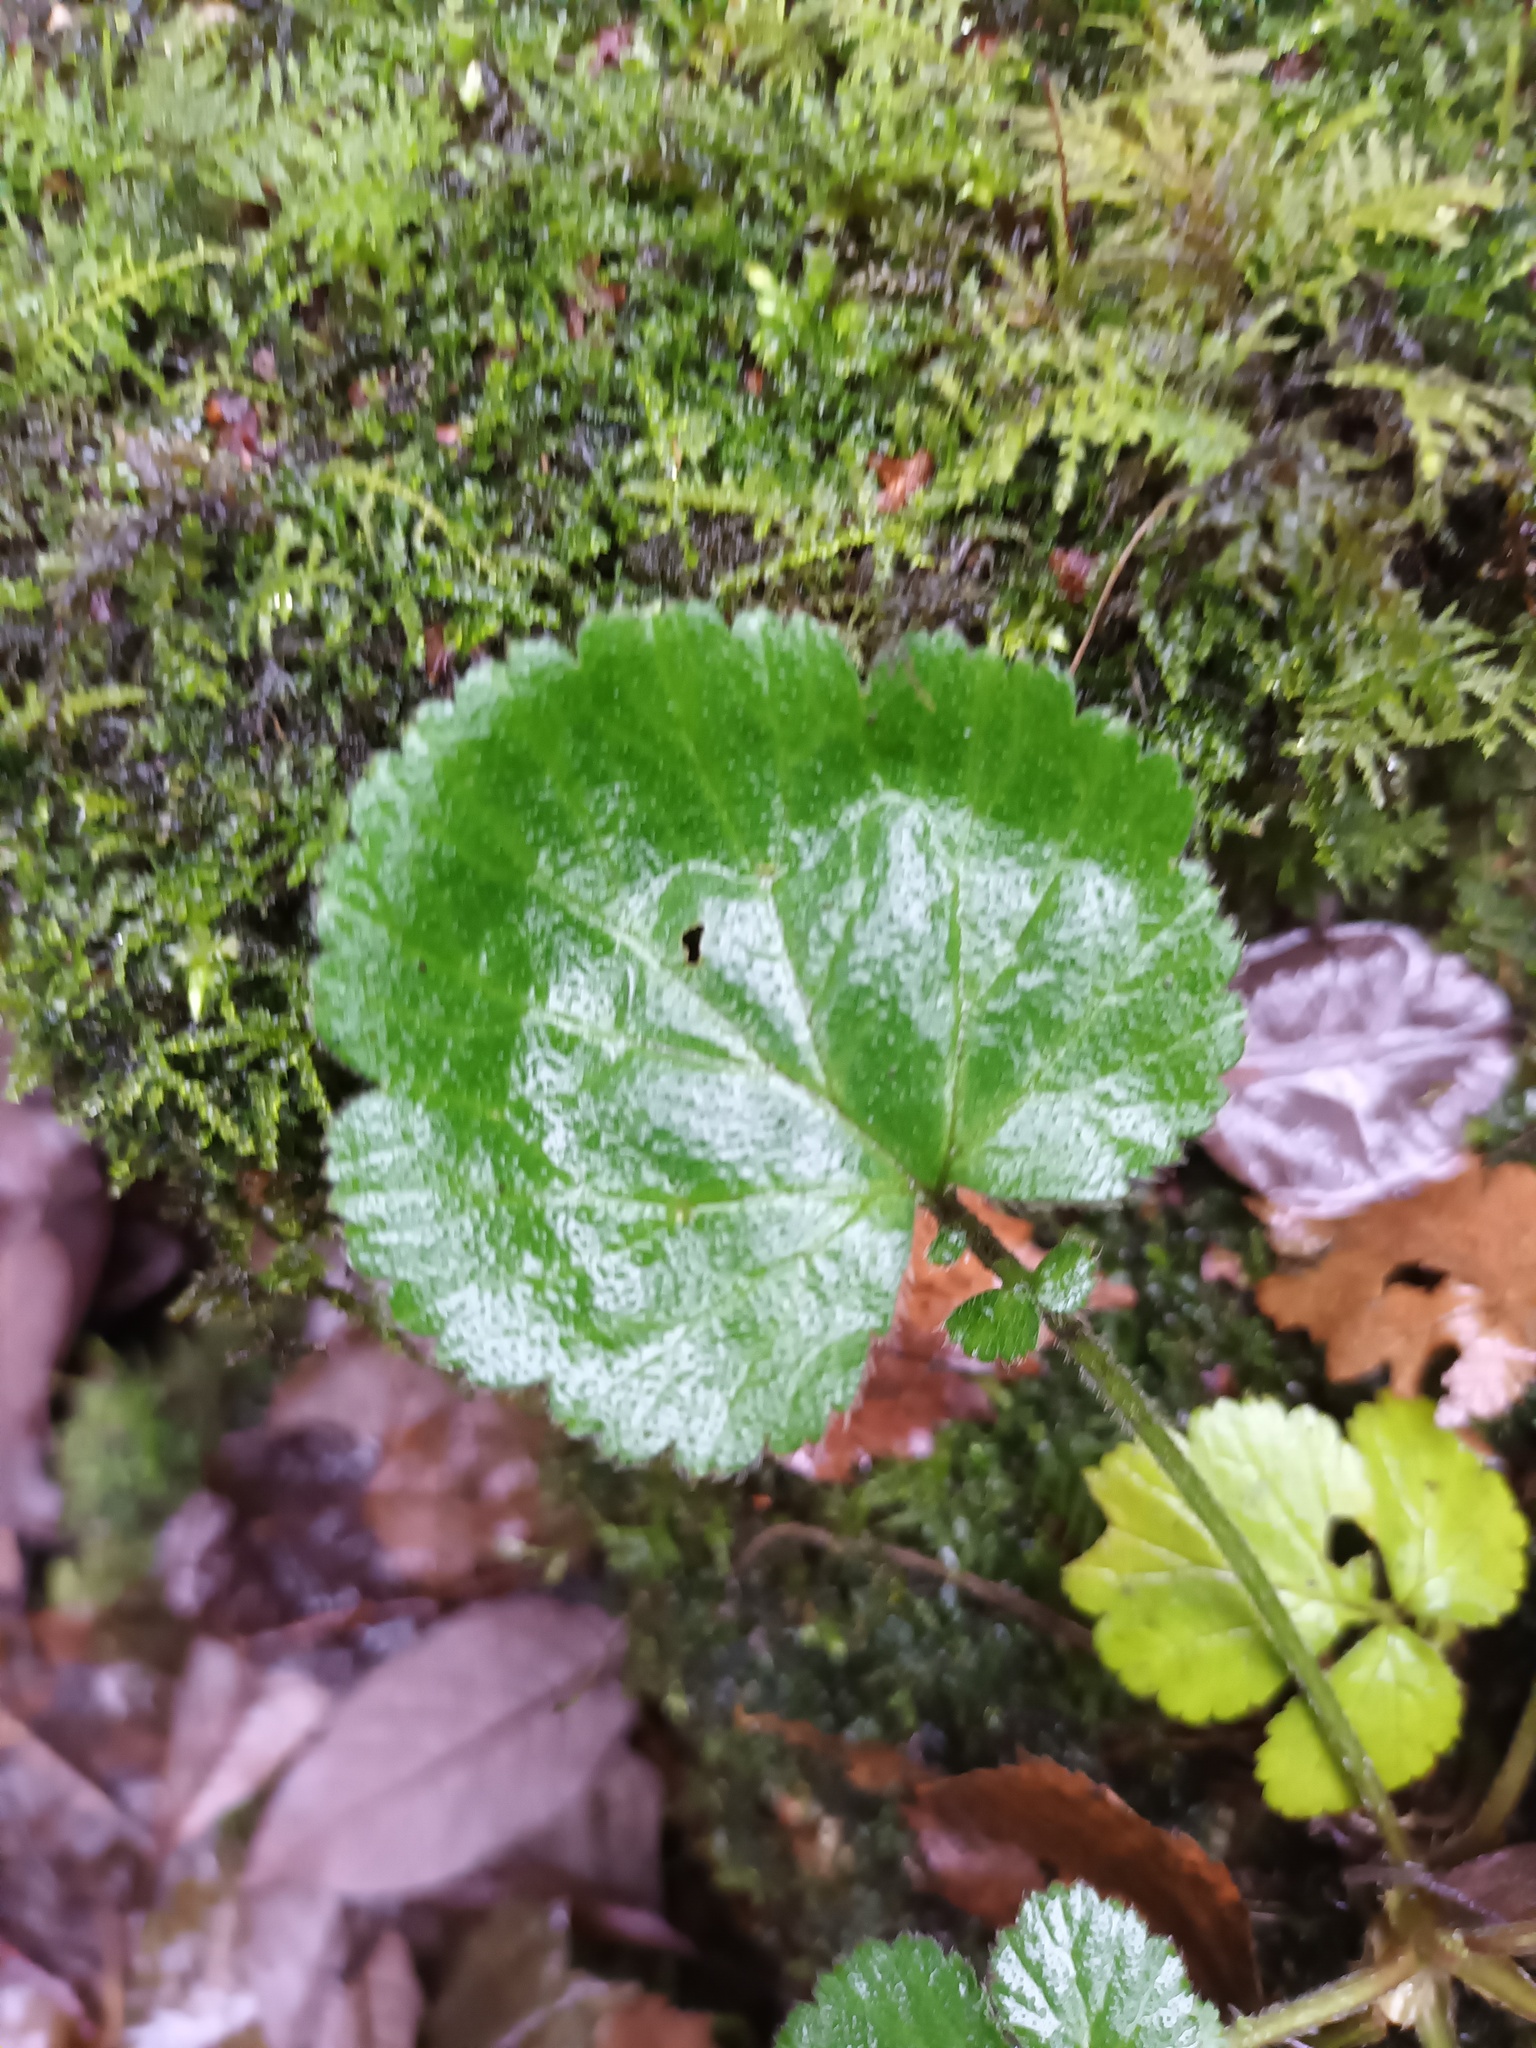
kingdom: Plantae
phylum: Tracheophyta
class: Magnoliopsida
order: Rosales
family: Rosaceae
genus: Geum
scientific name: Geum urbanum
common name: Wood avens
